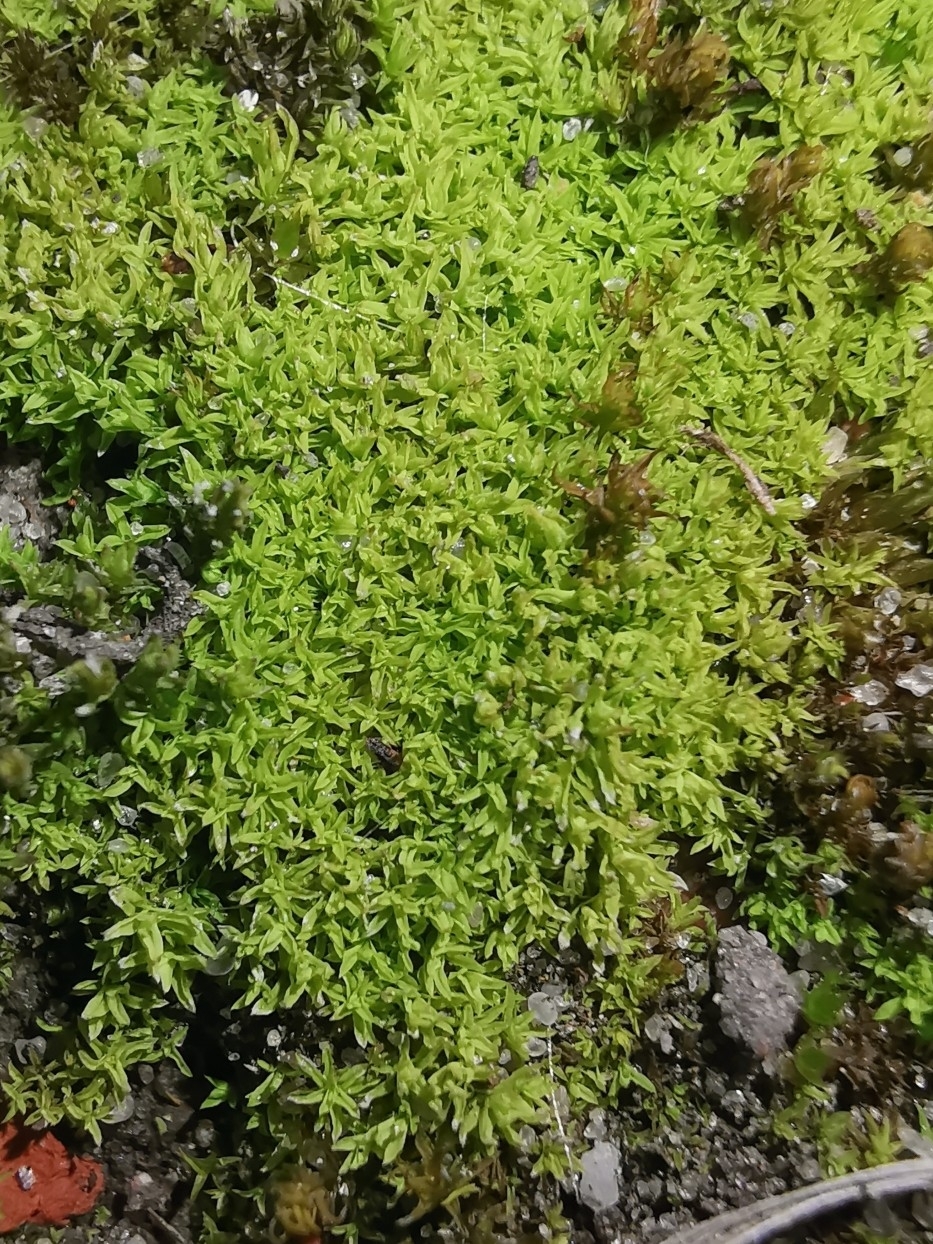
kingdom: Plantae
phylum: Bryophyta
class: Bryopsida
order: Pottiales
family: Pottiaceae
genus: Barbula
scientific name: Barbula unguiculata
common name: Prickly beard moss
